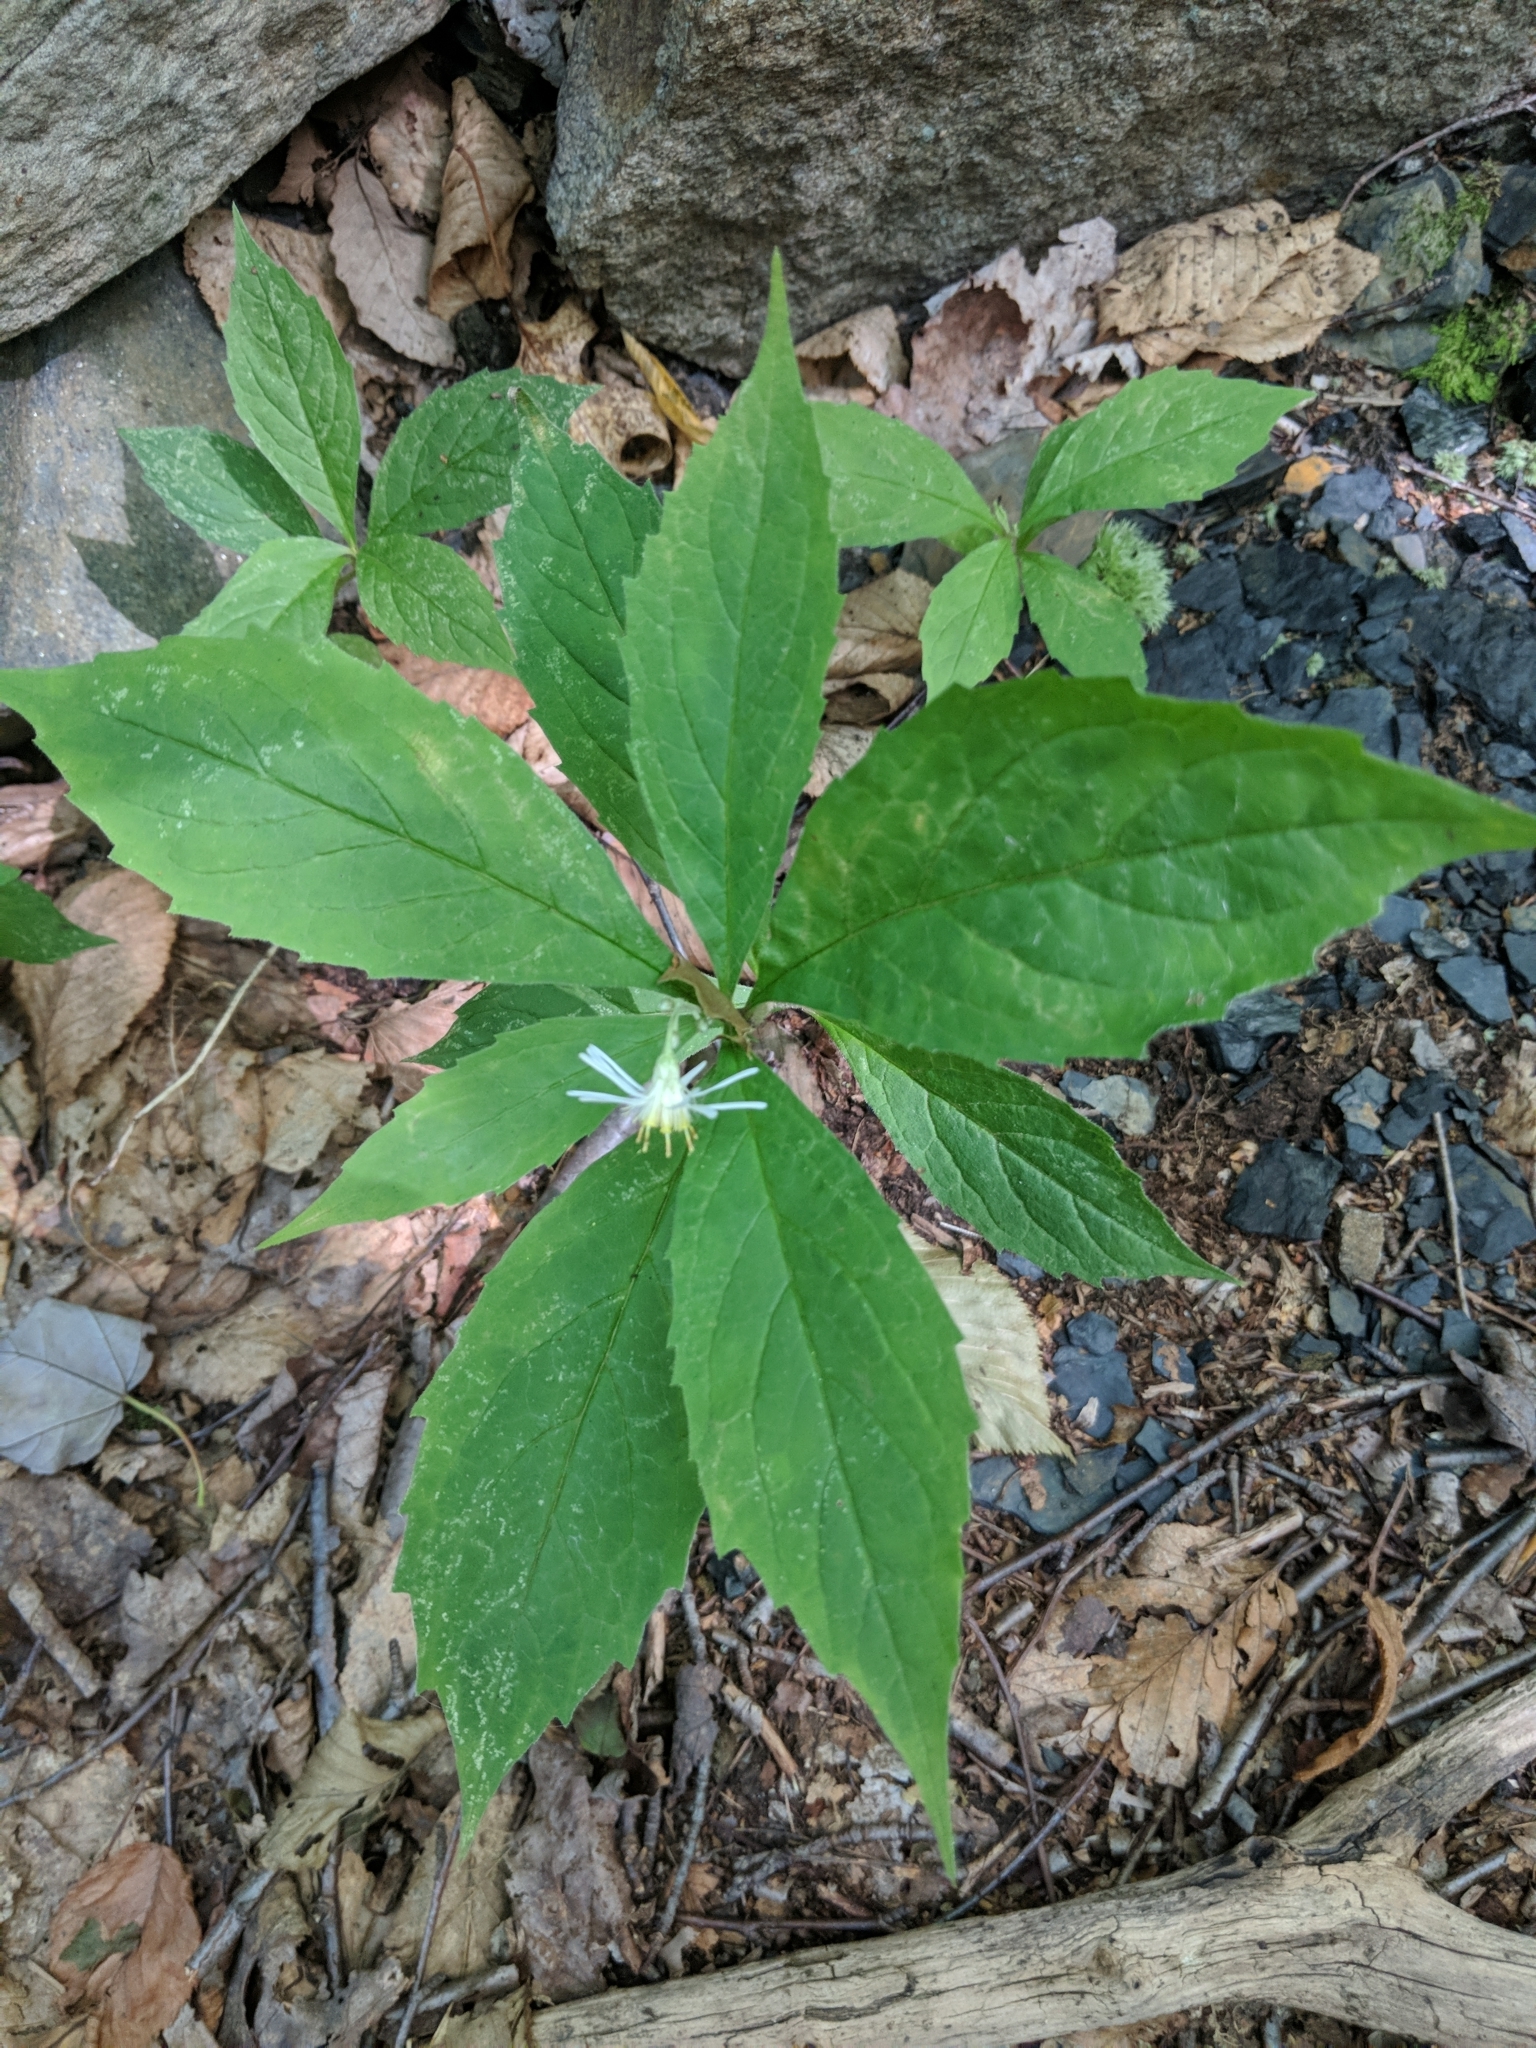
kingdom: Plantae
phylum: Tracheophyta
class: Magnoliopsida
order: Asterales
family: Asteraceae
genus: Oclemena
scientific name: Oclemena acuminata
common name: Mountain aster
